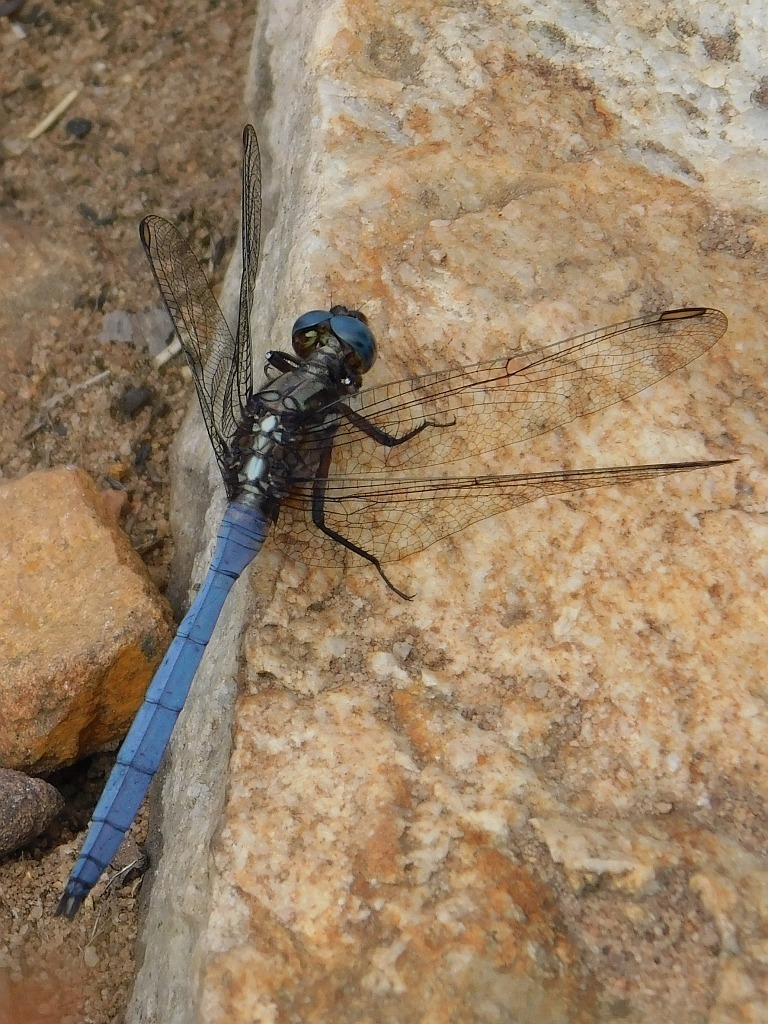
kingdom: Animalia
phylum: Arthropoda
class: Insecta
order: Odonata
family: Libellulidae
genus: Orthetrum
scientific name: Orthetrum julia
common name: Julia skimmer
